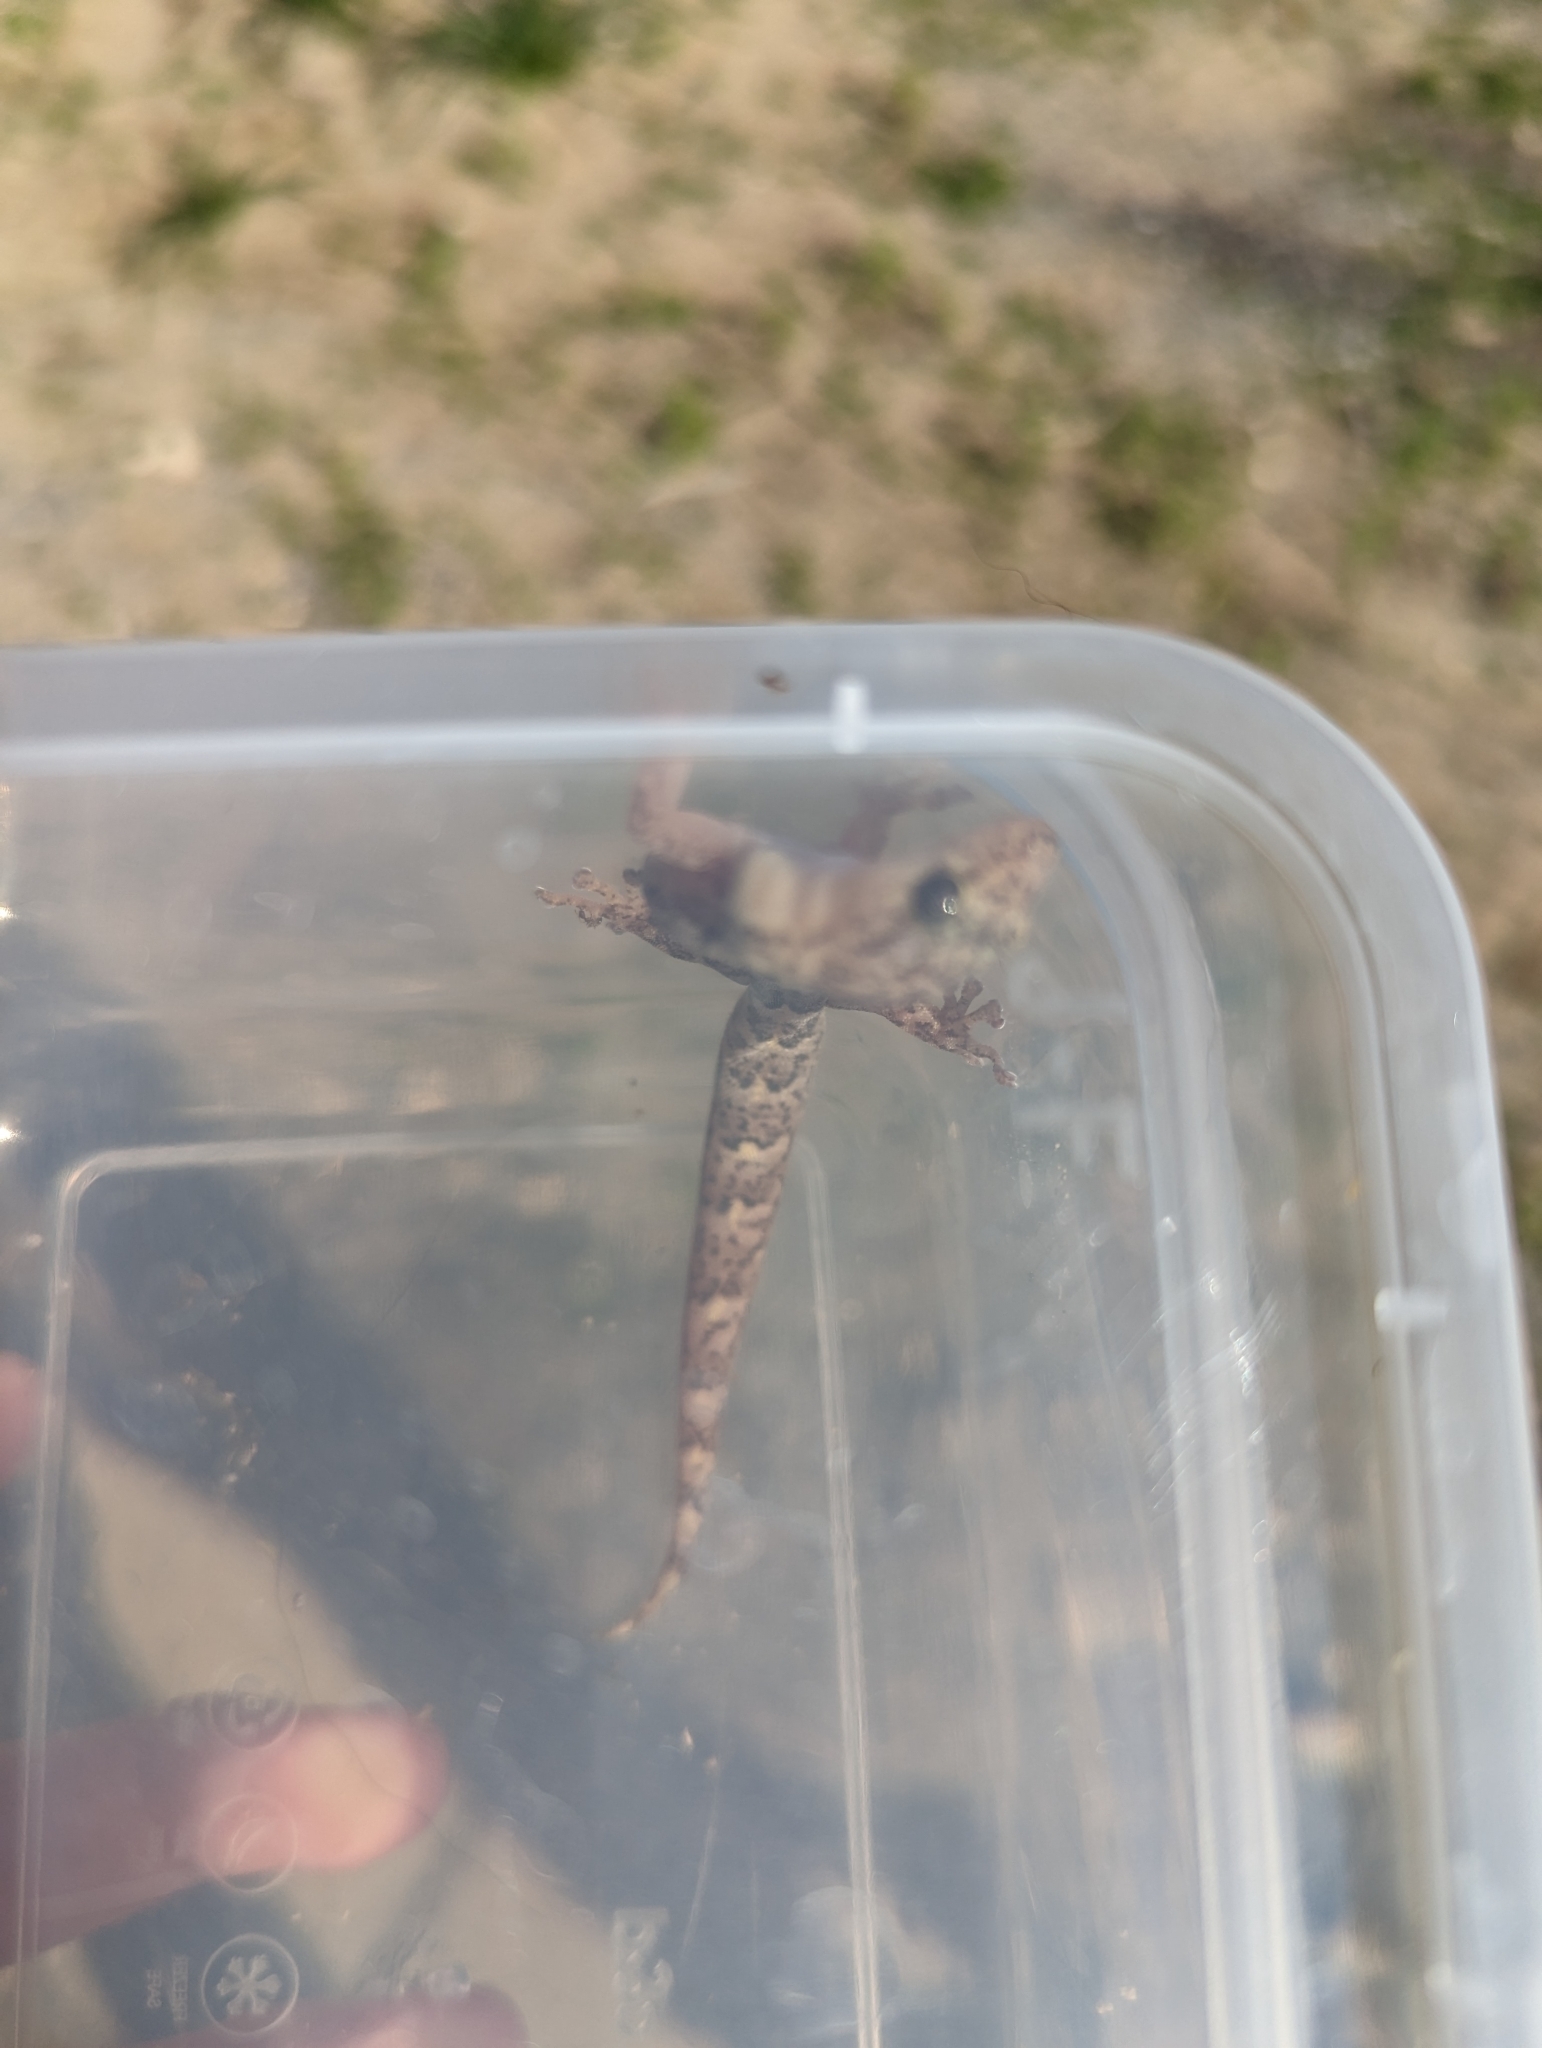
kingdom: Animalia
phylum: Chordata
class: Squamata
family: Gekkonidae
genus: Christinus
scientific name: Christinus marmoratus
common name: Marbled gecko
